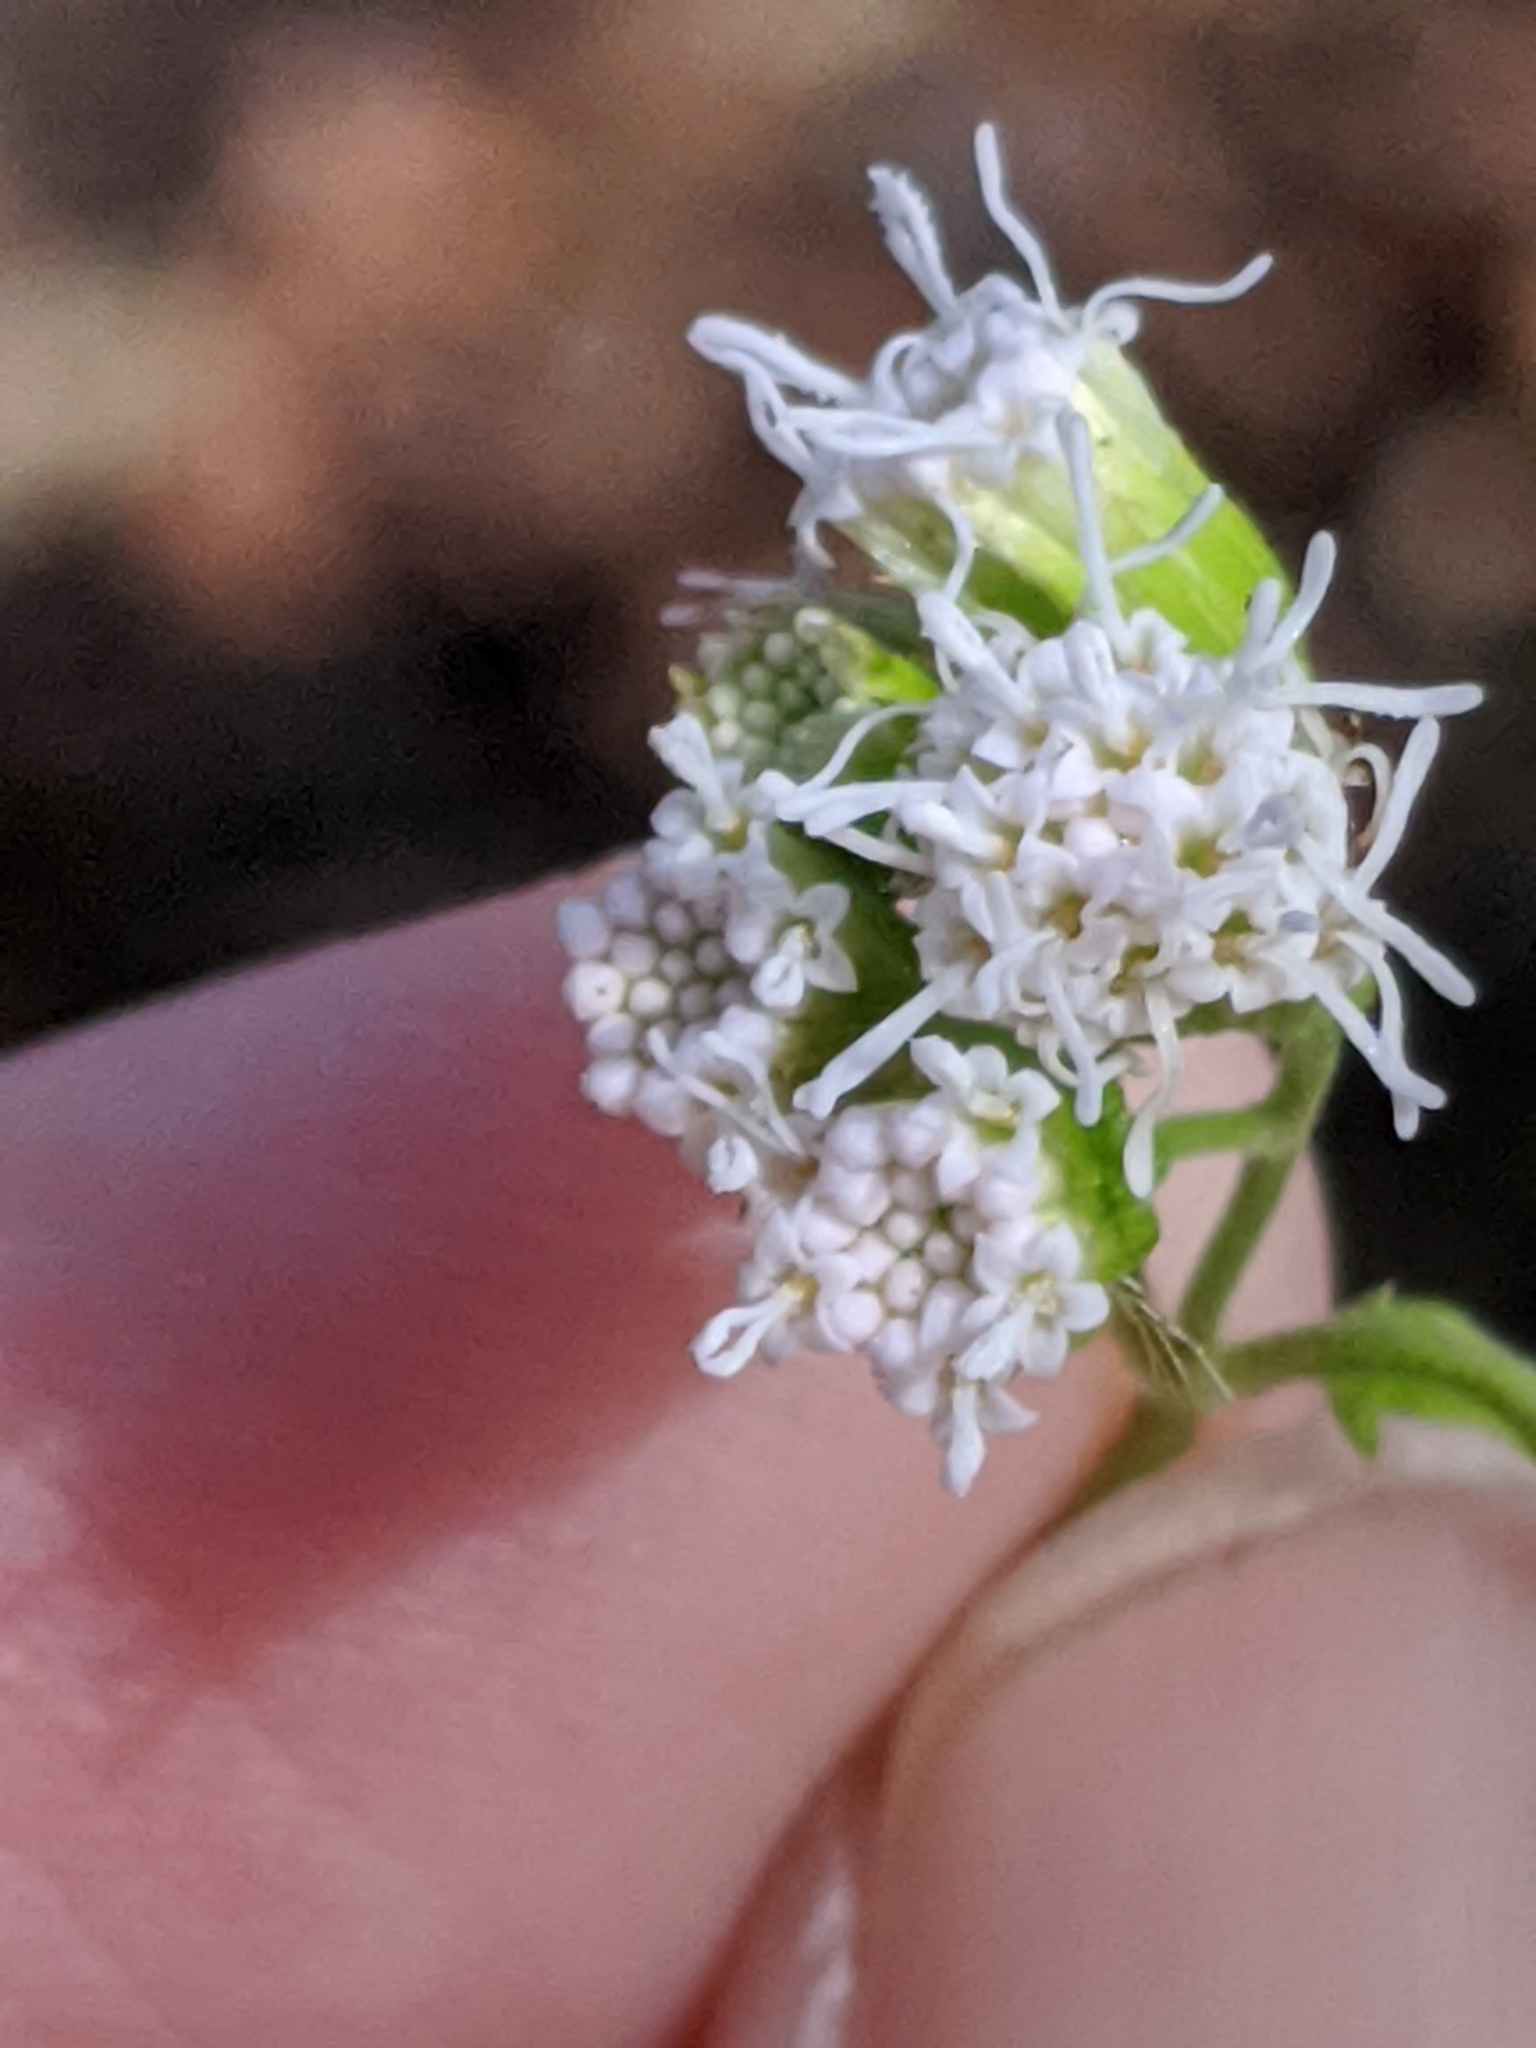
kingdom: Plantae
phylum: Tracheophyta
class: Magnoliopsida
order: Asterales
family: Asteraceae
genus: Fleischmannia
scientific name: Fleischmannia incarnata
